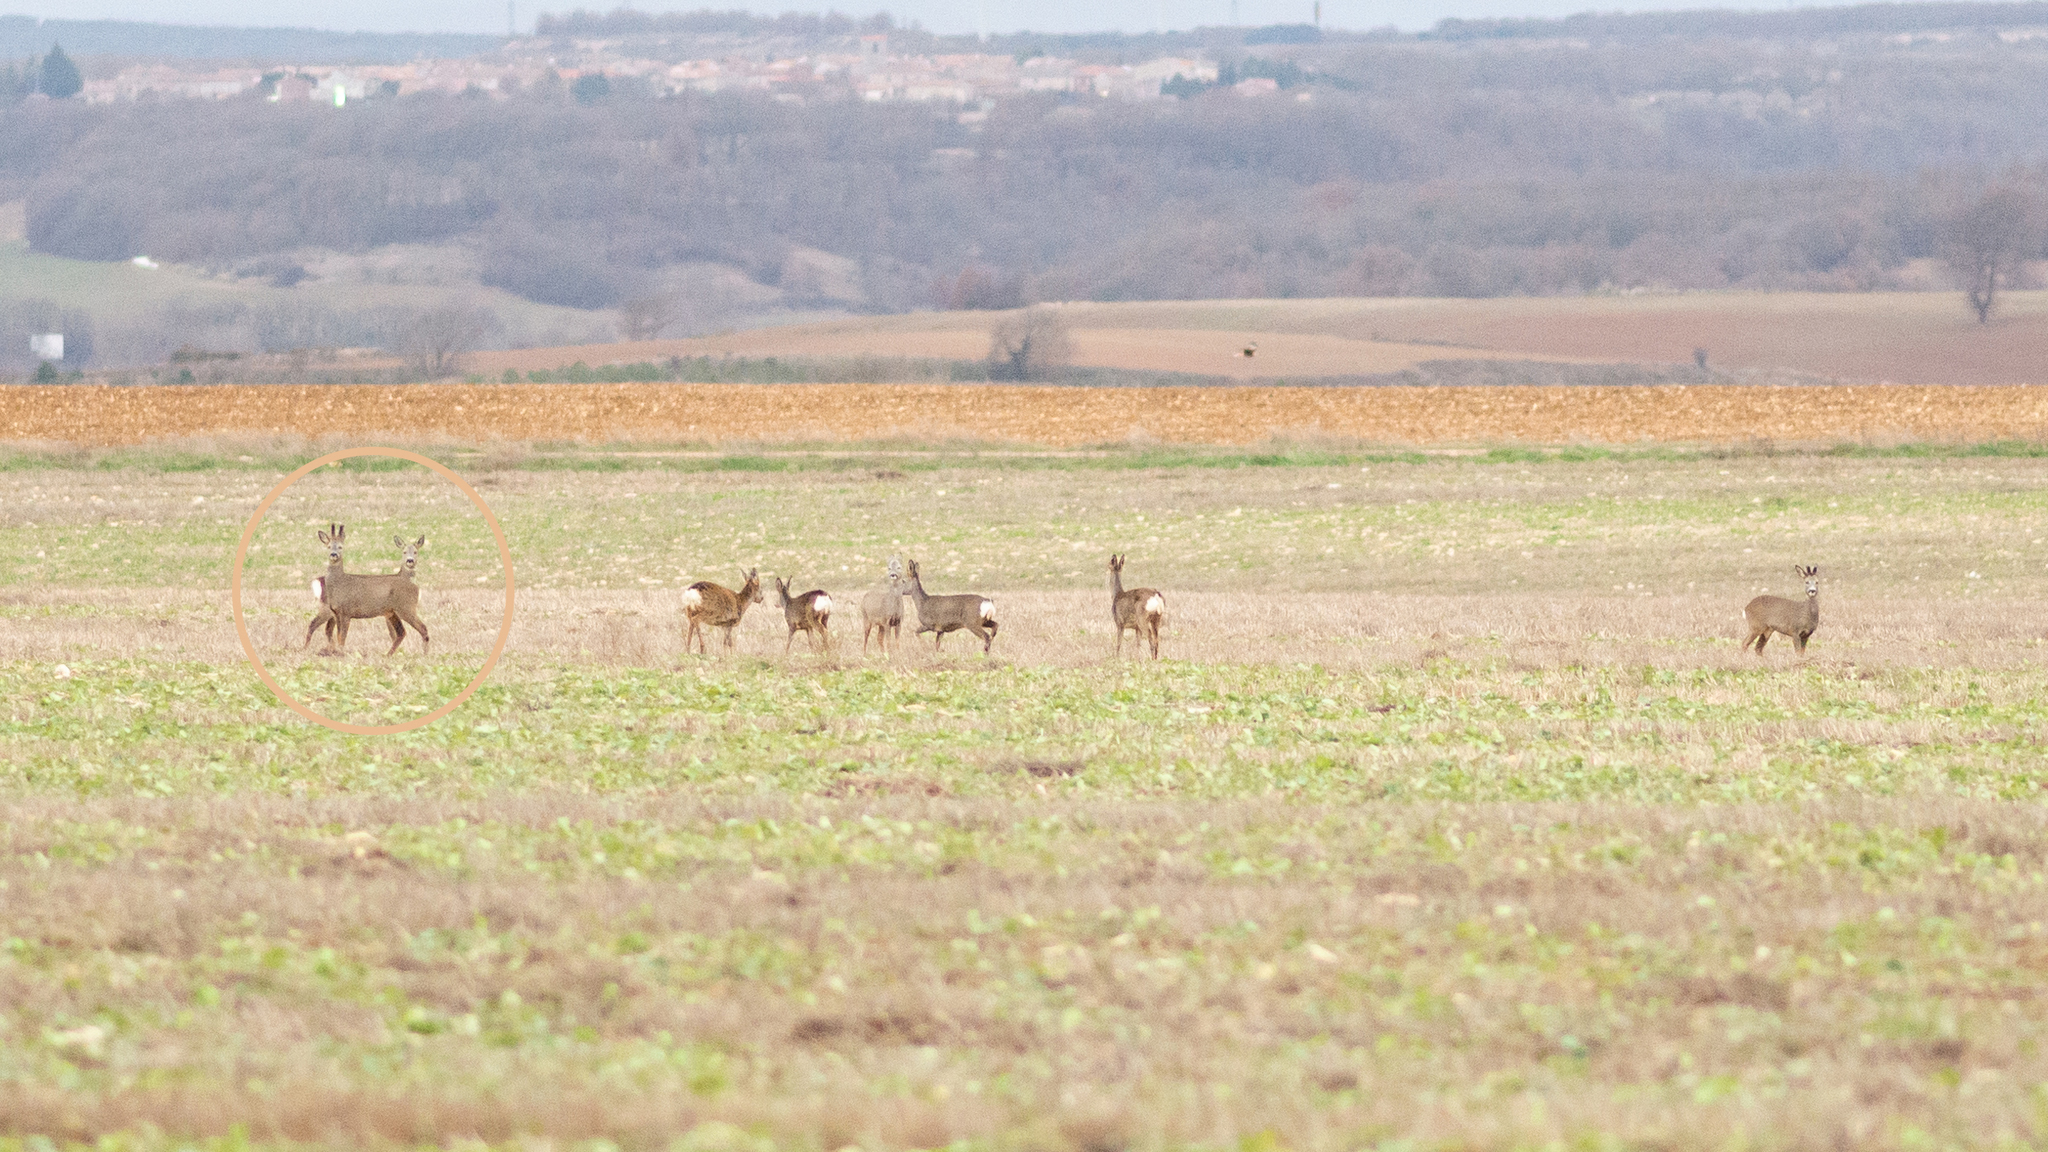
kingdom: Animalia
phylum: Chordata
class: Mammalia
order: Artiodactyla
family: Cervidae
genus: Capreolus
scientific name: Capreolus capreolus
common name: Western roe deer
